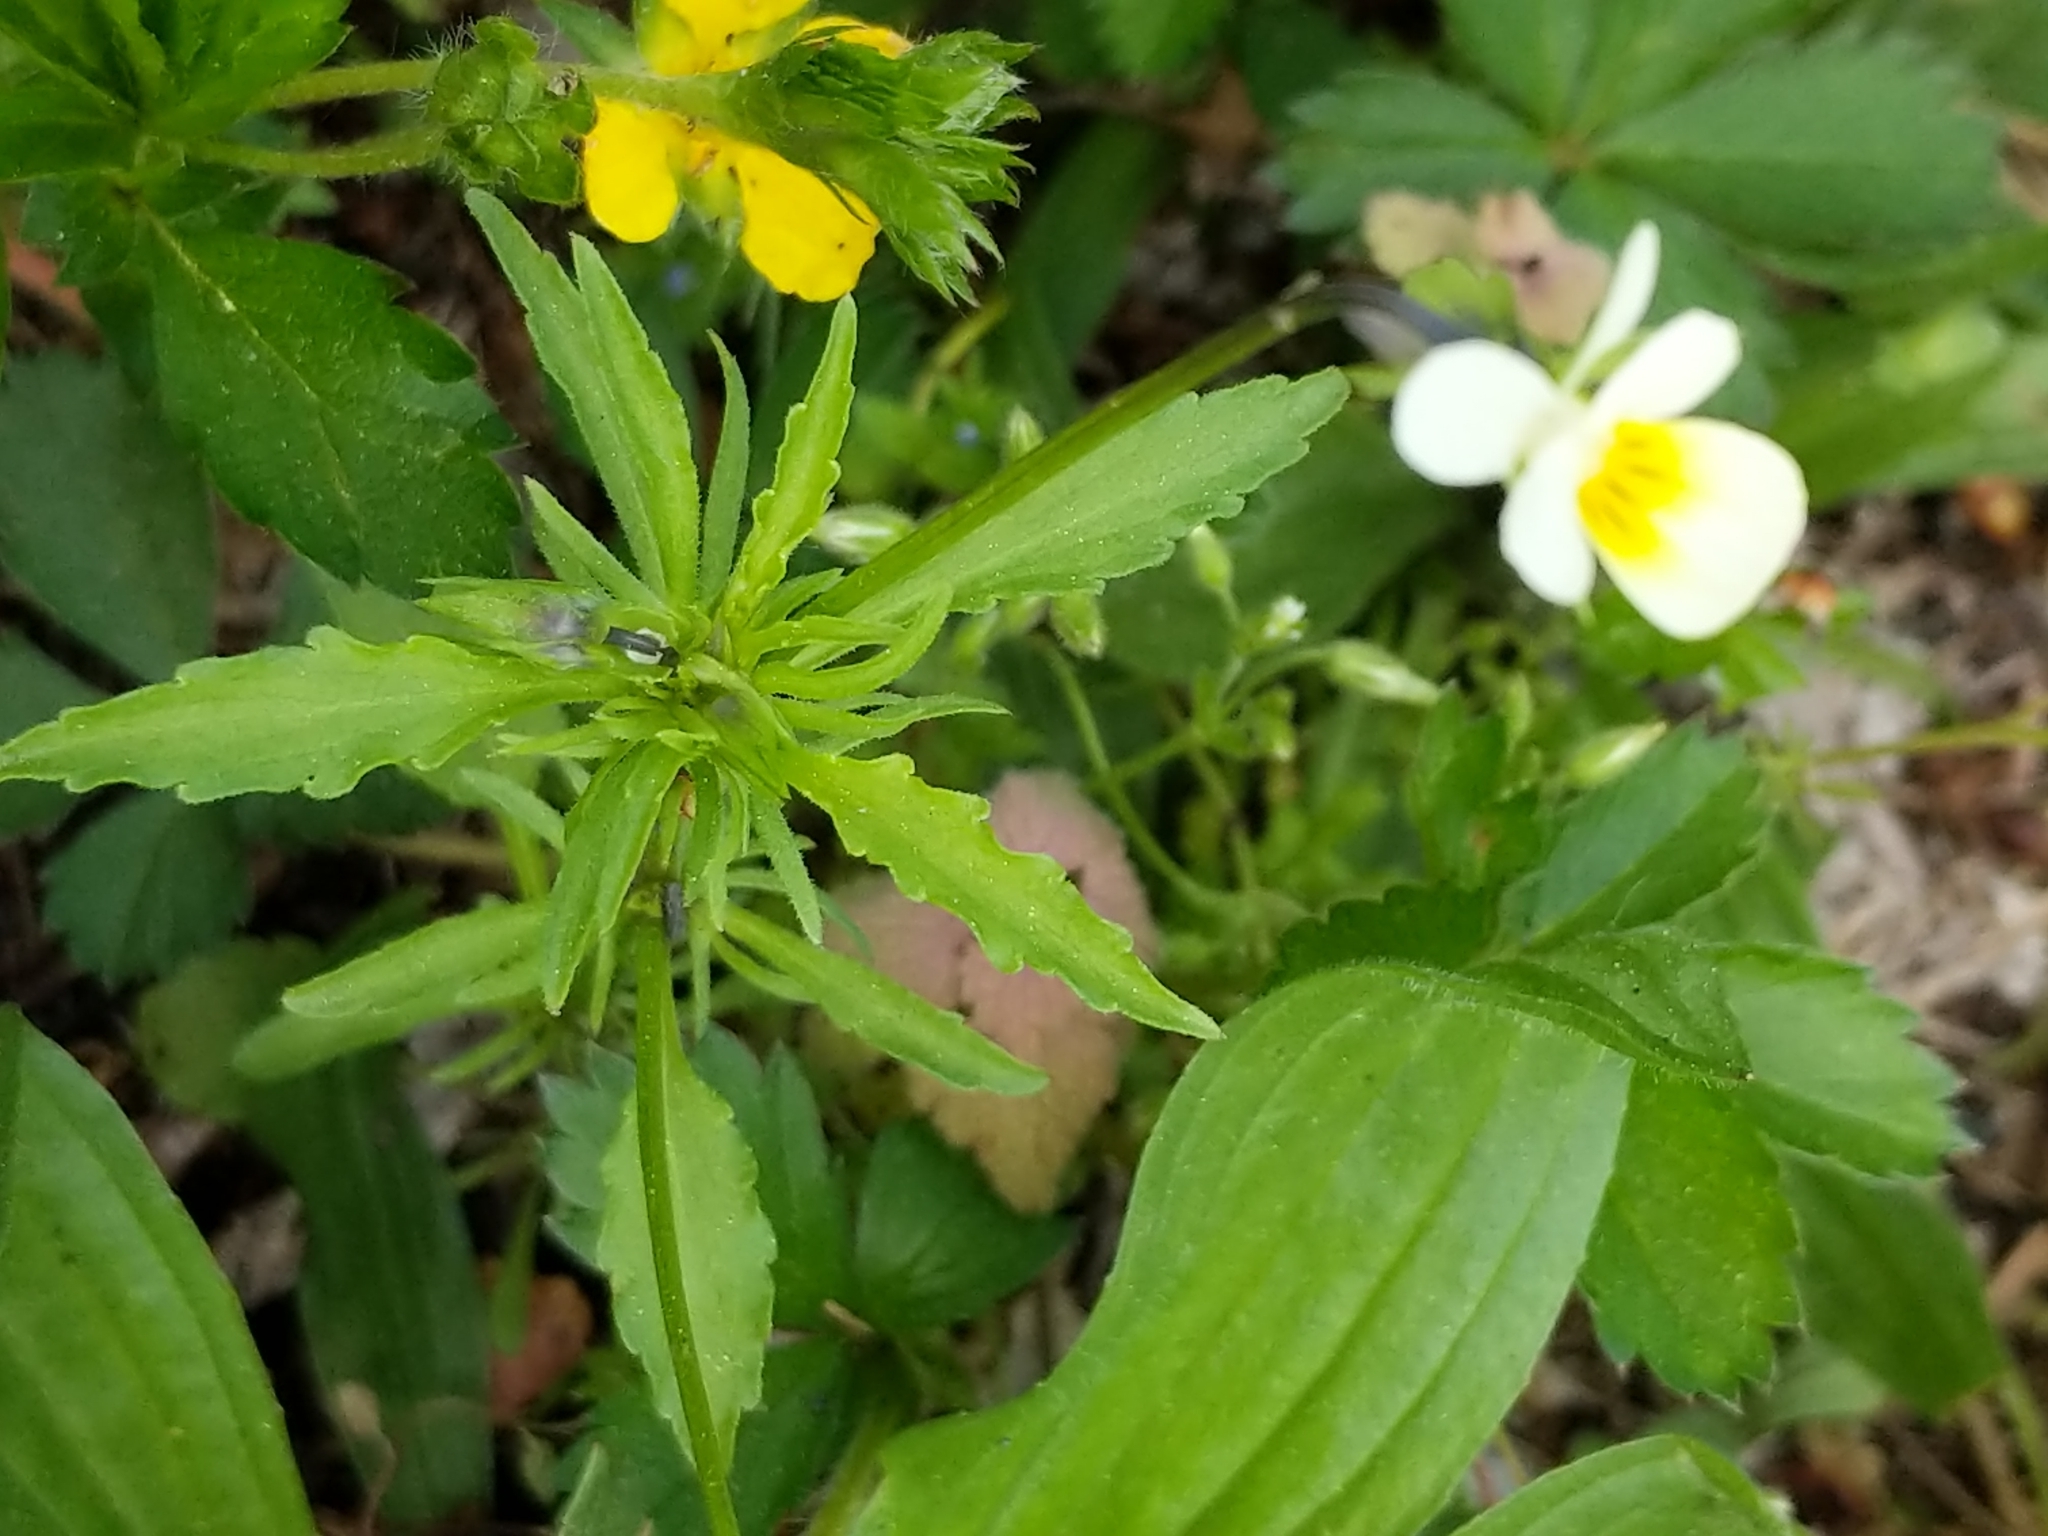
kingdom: Plantae
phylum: Tracheophyta
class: Magnoliopsida
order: Malpighiales
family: Violaceae
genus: Viola
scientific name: Viola arvensis
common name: Field pansy
